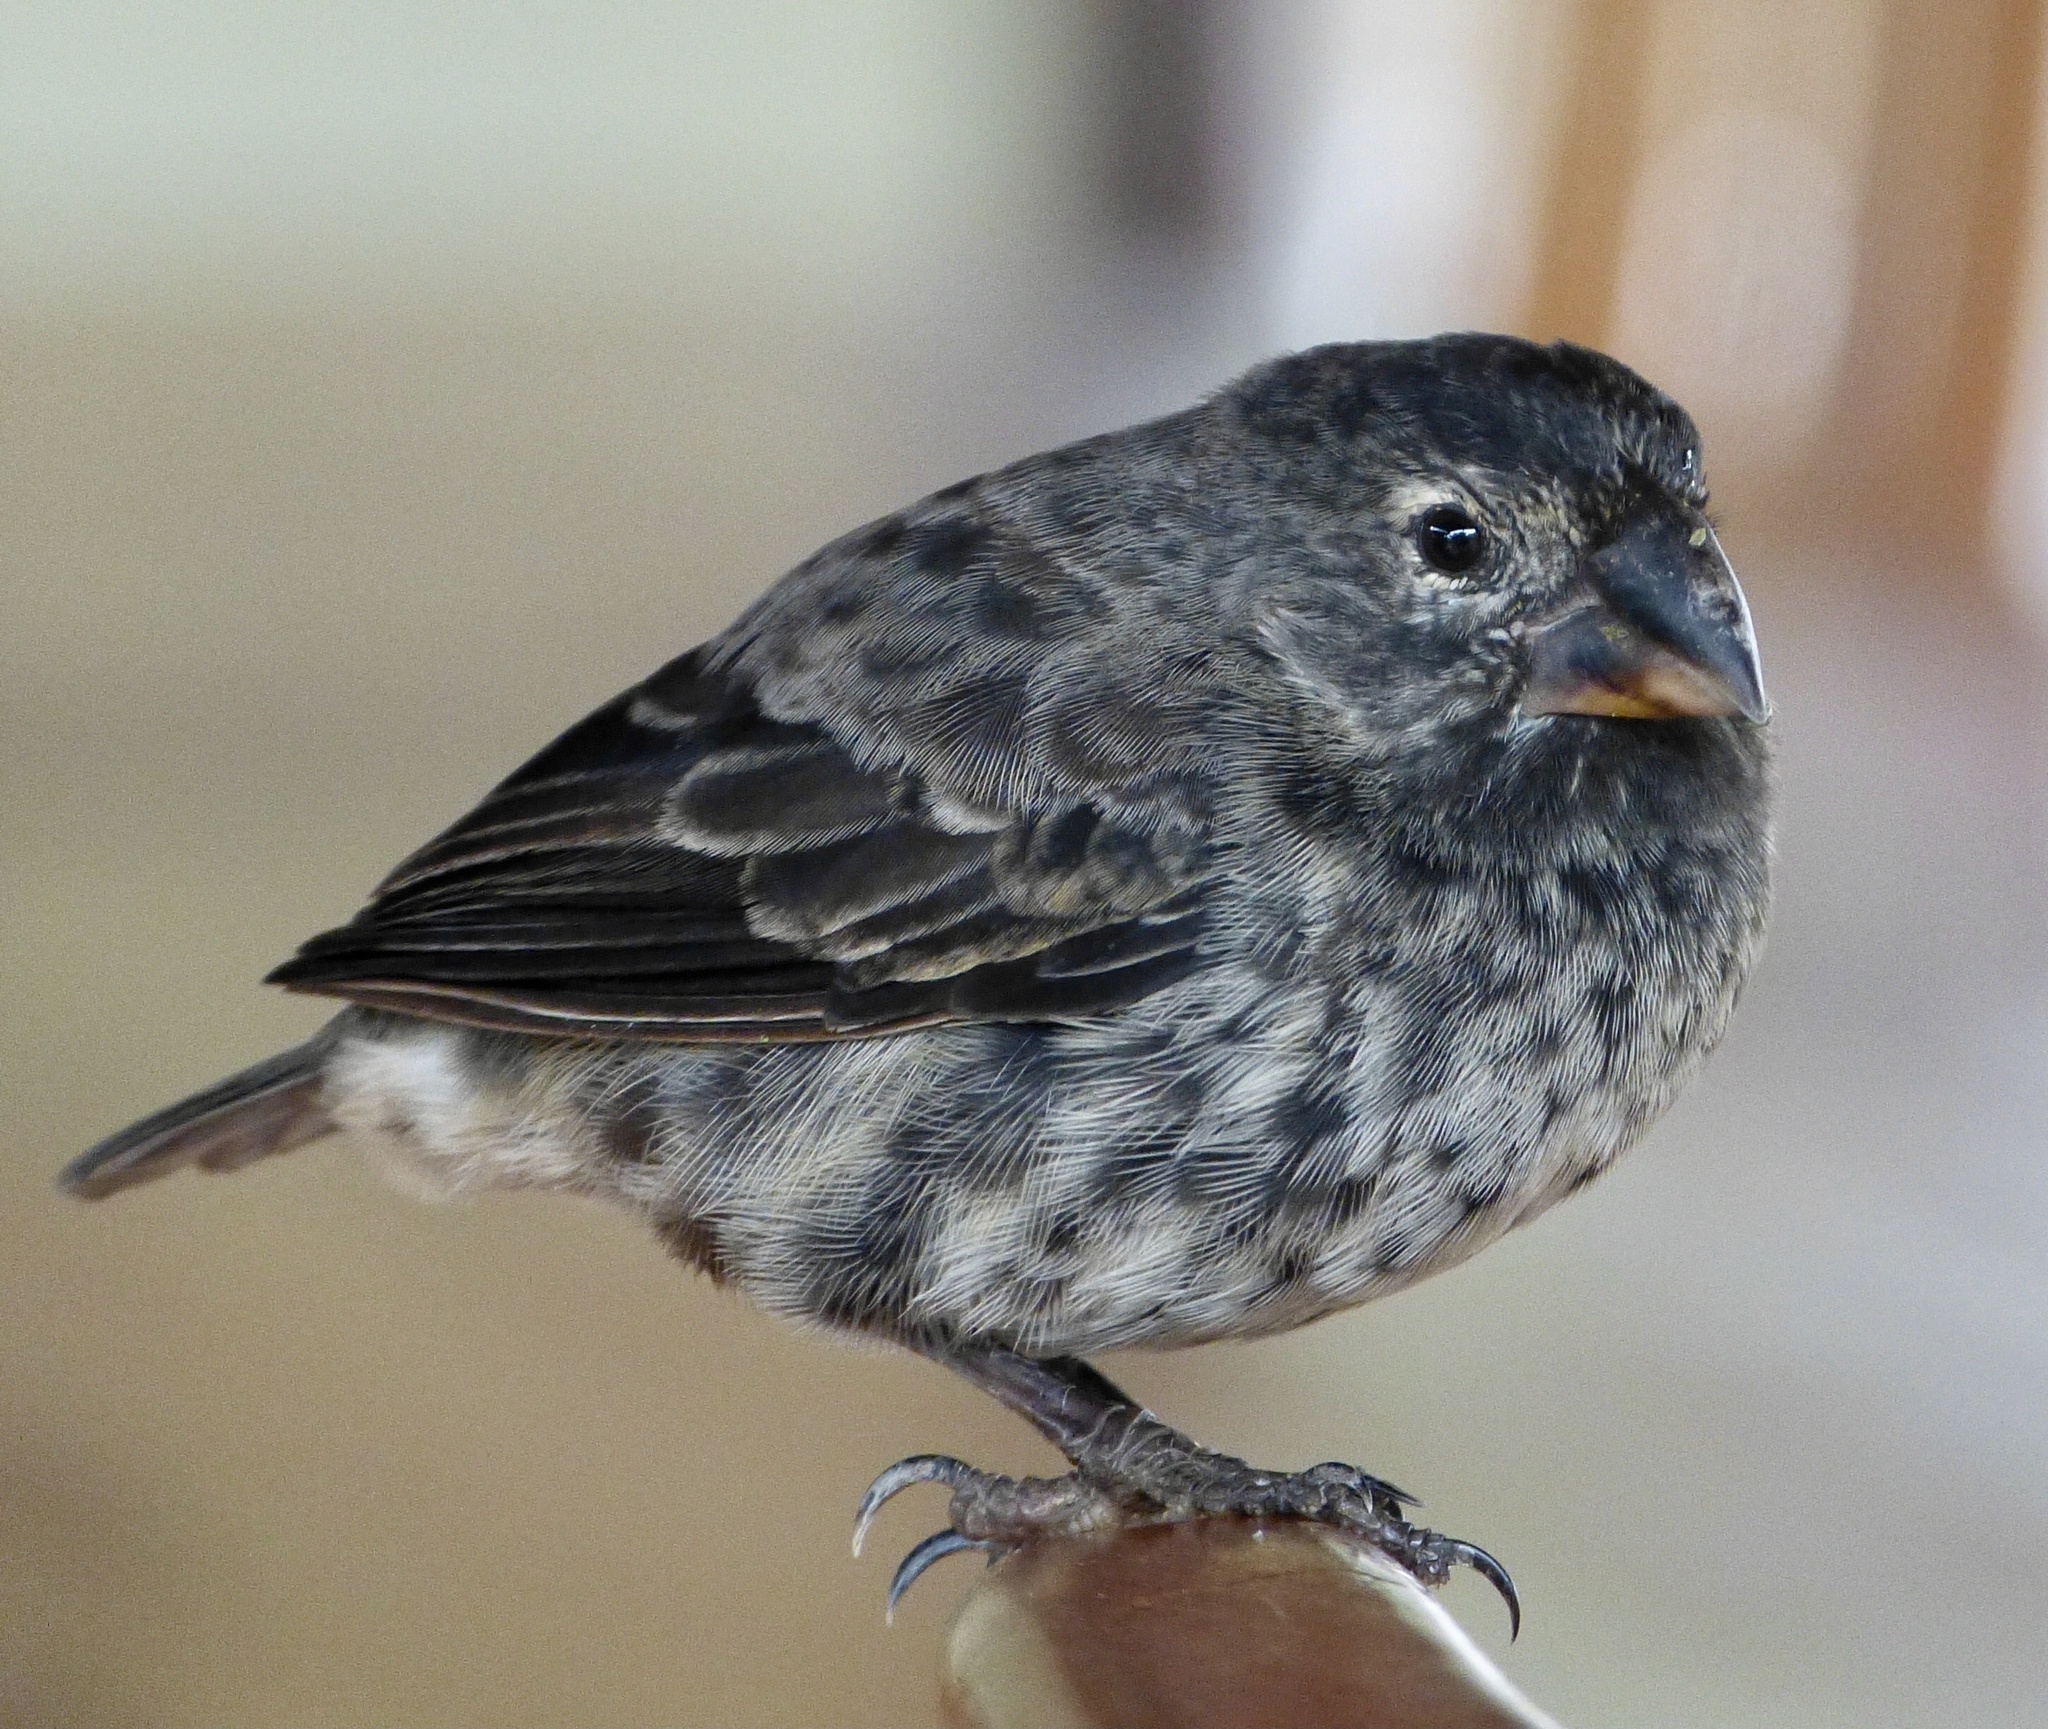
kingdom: Animalia
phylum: Chordata
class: Aves
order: Passeriformes
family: Thraupidae
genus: Geospiza
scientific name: Geospiza fuliginosa
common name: Small ground finch
